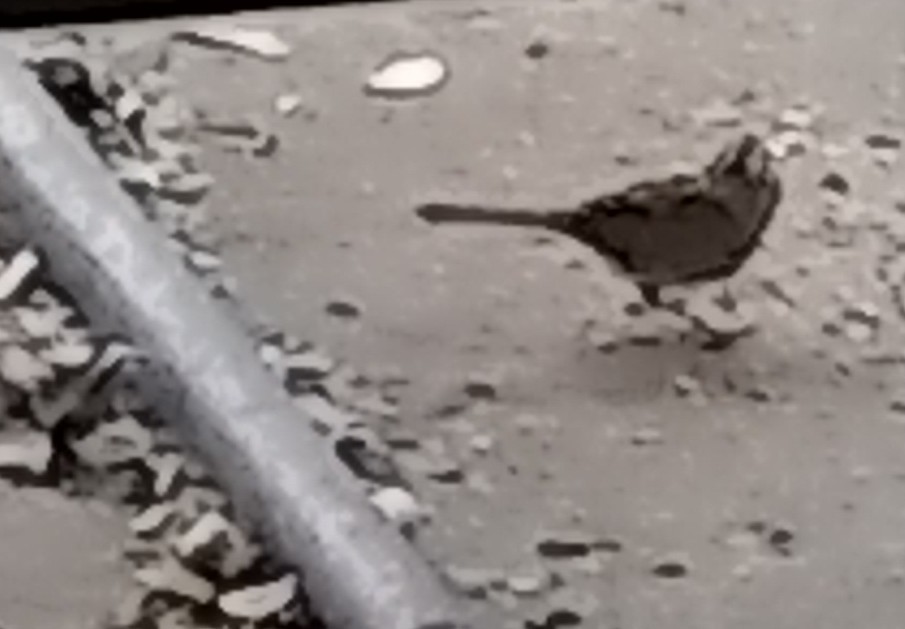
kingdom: Animalia
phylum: Chordata
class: Aves
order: Passeriformes
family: Passerellidae
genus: Zonotrichia
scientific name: Zonotrichia leucophrys
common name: White-crowned sparrow
